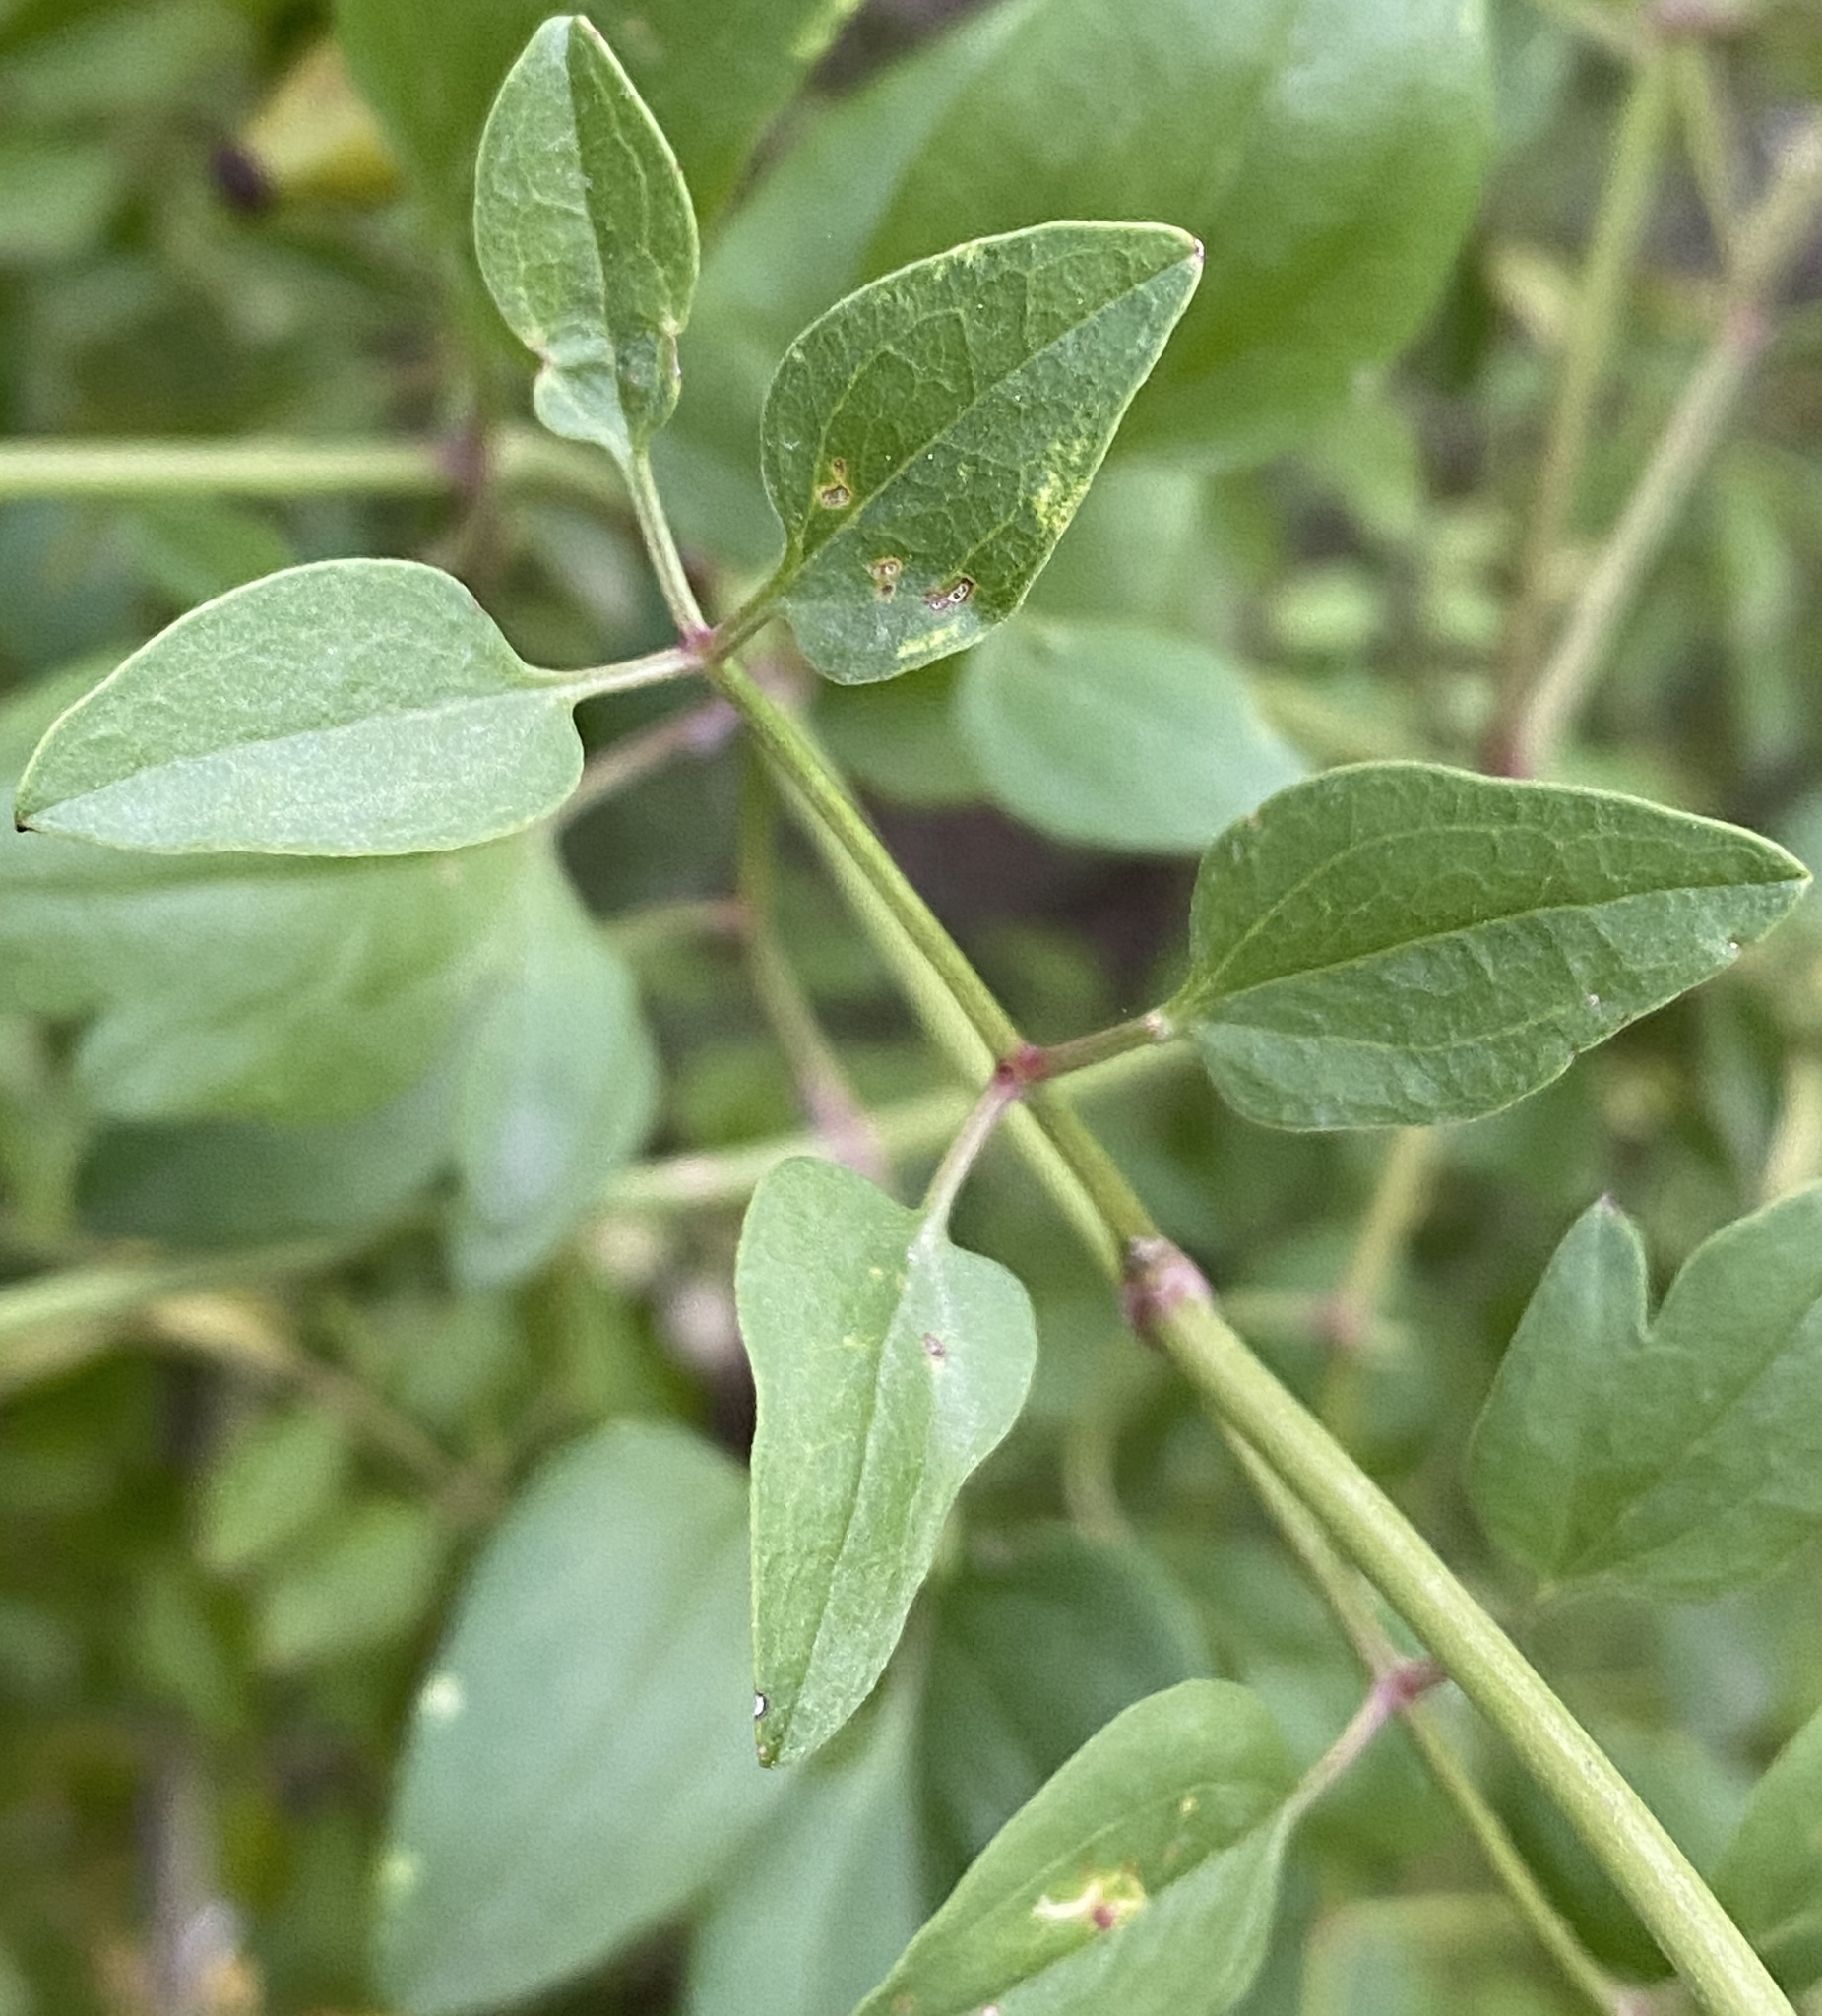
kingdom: Plantae
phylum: Tracheophyta
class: Magnoliopsida
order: Ranunculales
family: Ranunculaceae
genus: Clematis
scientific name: Clematis flammula
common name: Virgin's-bower
